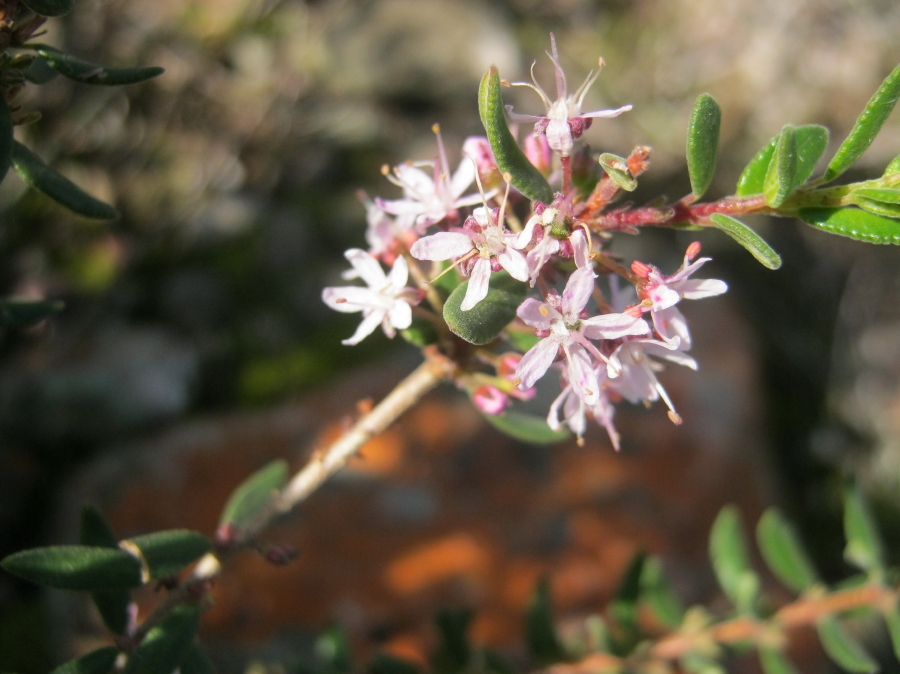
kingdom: Plantae
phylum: Tracheophyta
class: Magnoliopsida
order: Sapindales
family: Rutaceae
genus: Agathosma
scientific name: Agathosma ovata
